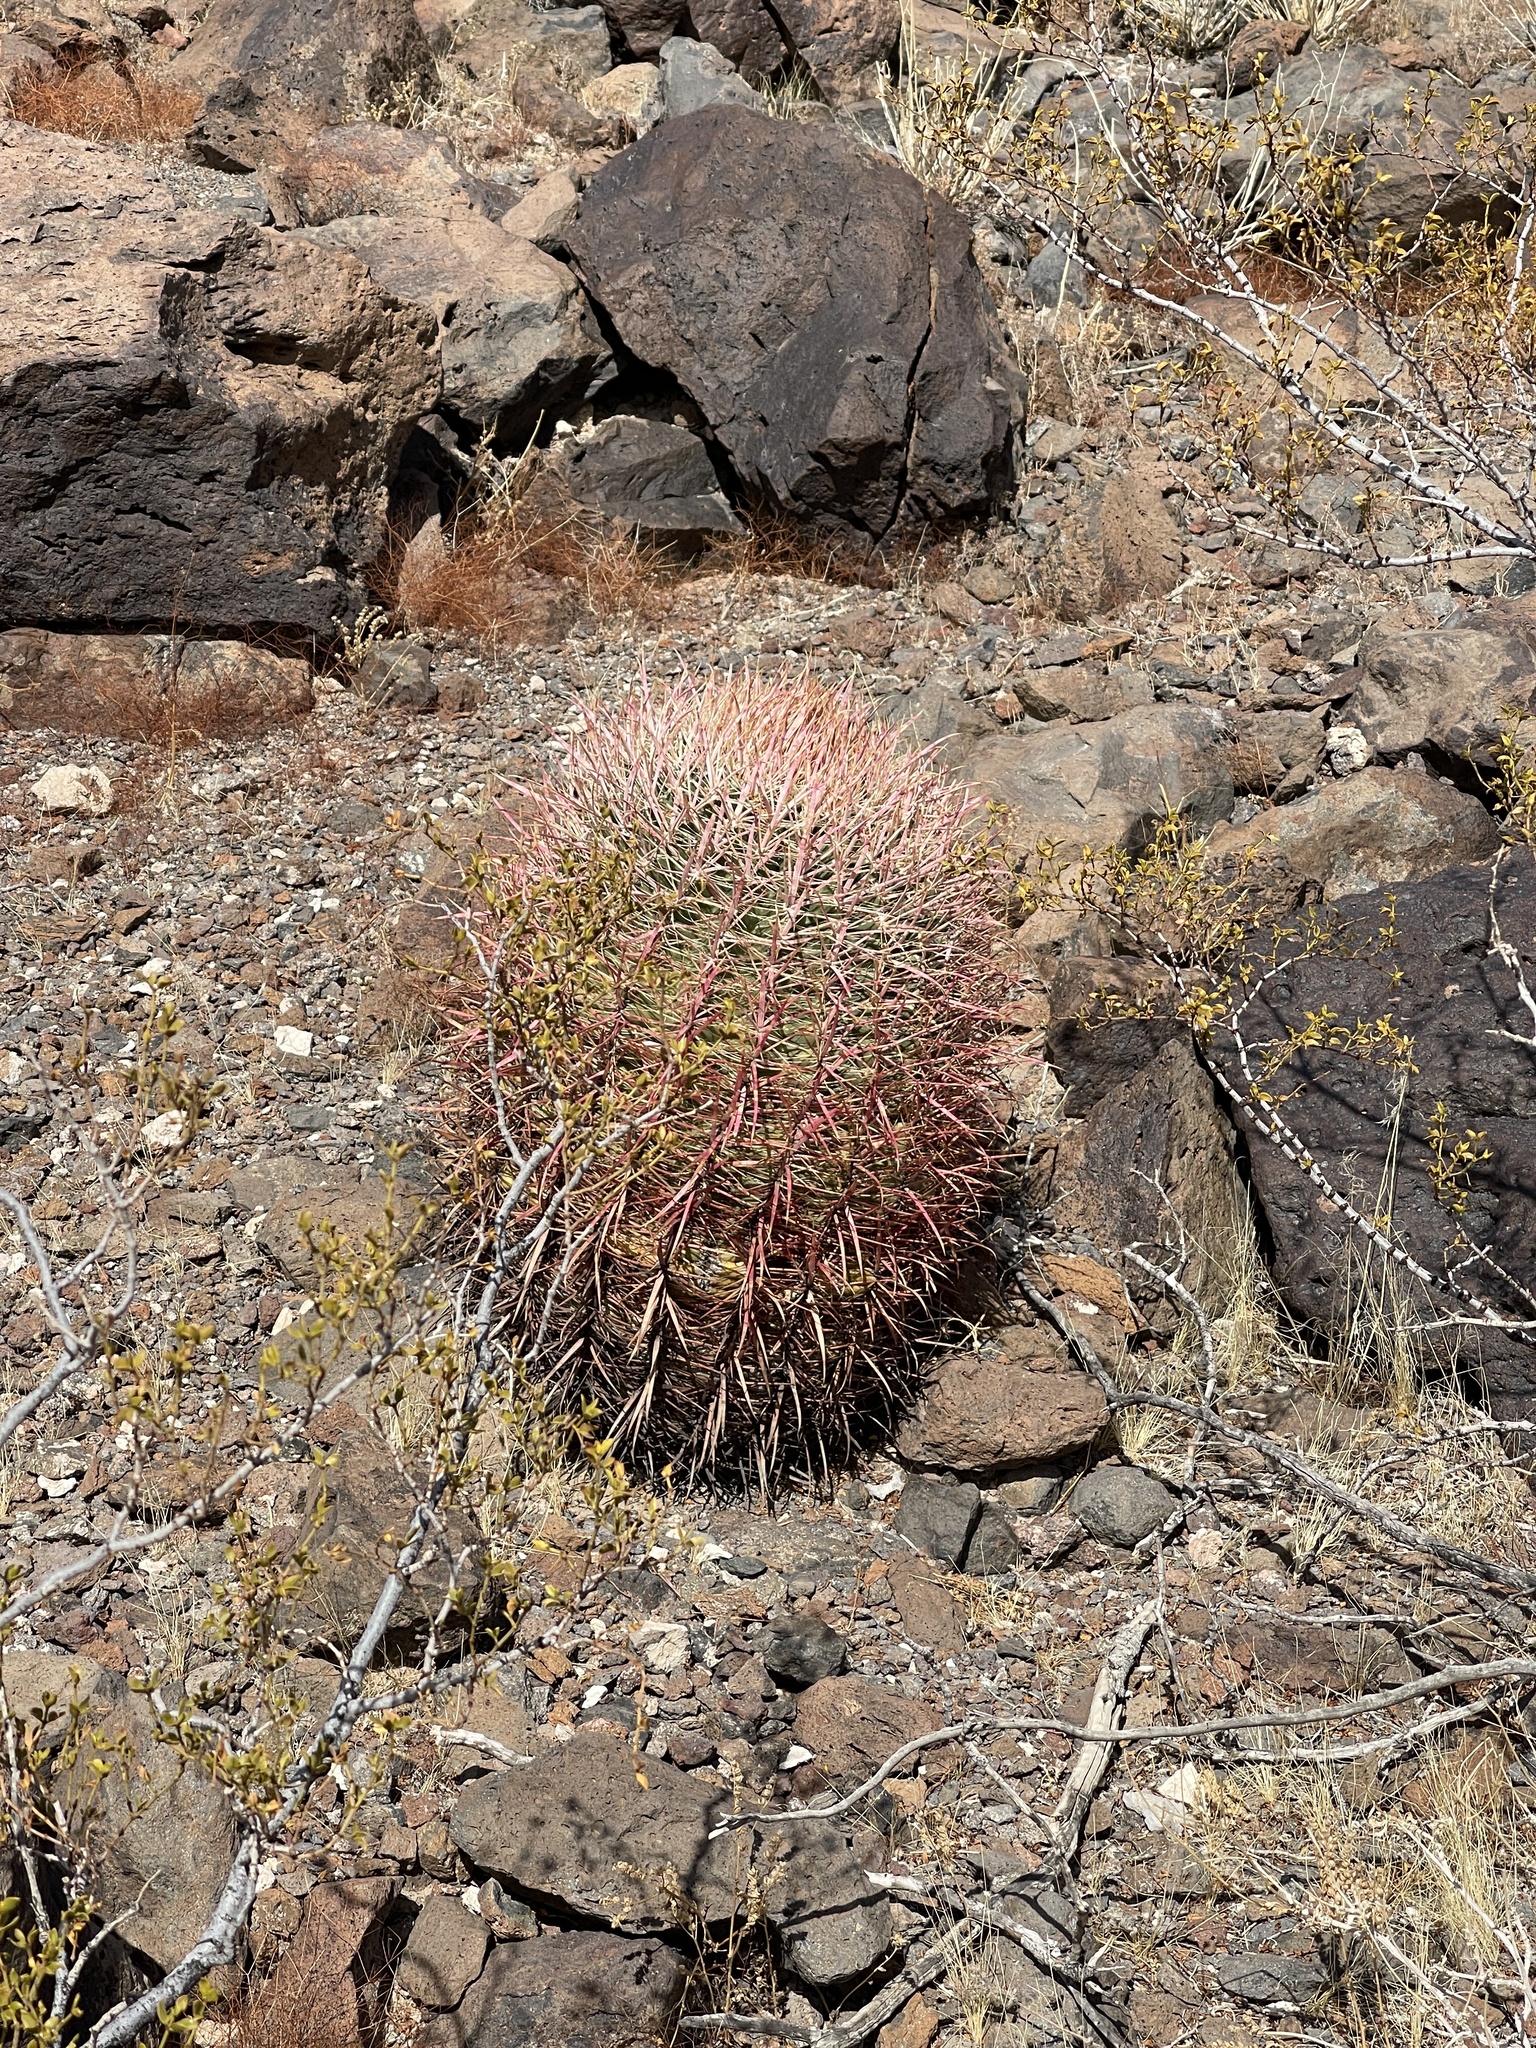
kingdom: Plantae
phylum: Tracheophyta
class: Magnoliopsida
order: Caryophyllales
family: Cactaceae
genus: Ferocactus
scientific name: Ferocactus cylindraceus
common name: California barrel cactus
